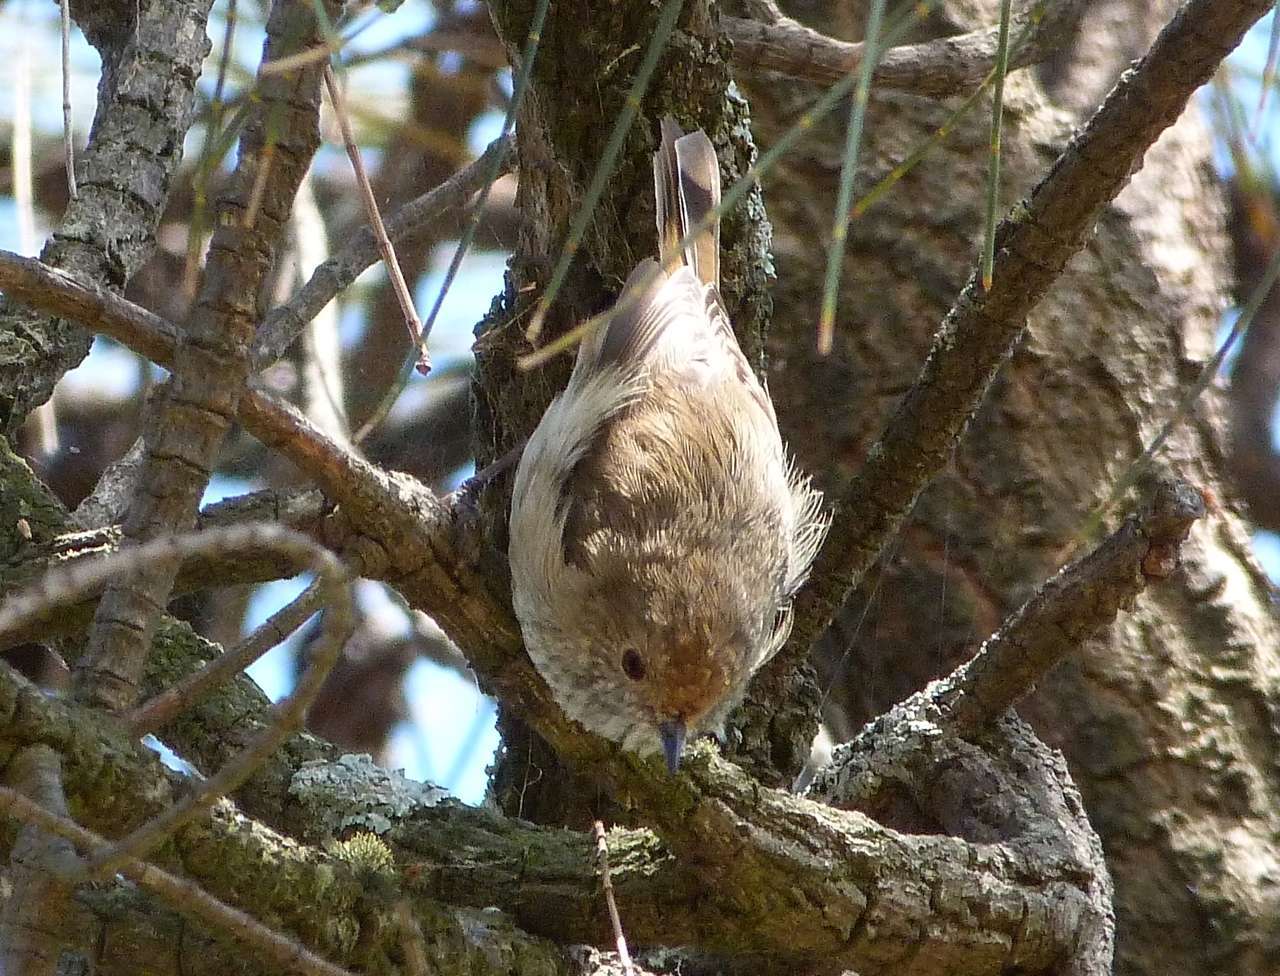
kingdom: Animalia
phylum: Chordata
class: Aves
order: Passeriformes
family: Acanthizidae
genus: Acanthiza
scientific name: Acanthiza pusilla
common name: Brown thornbill
